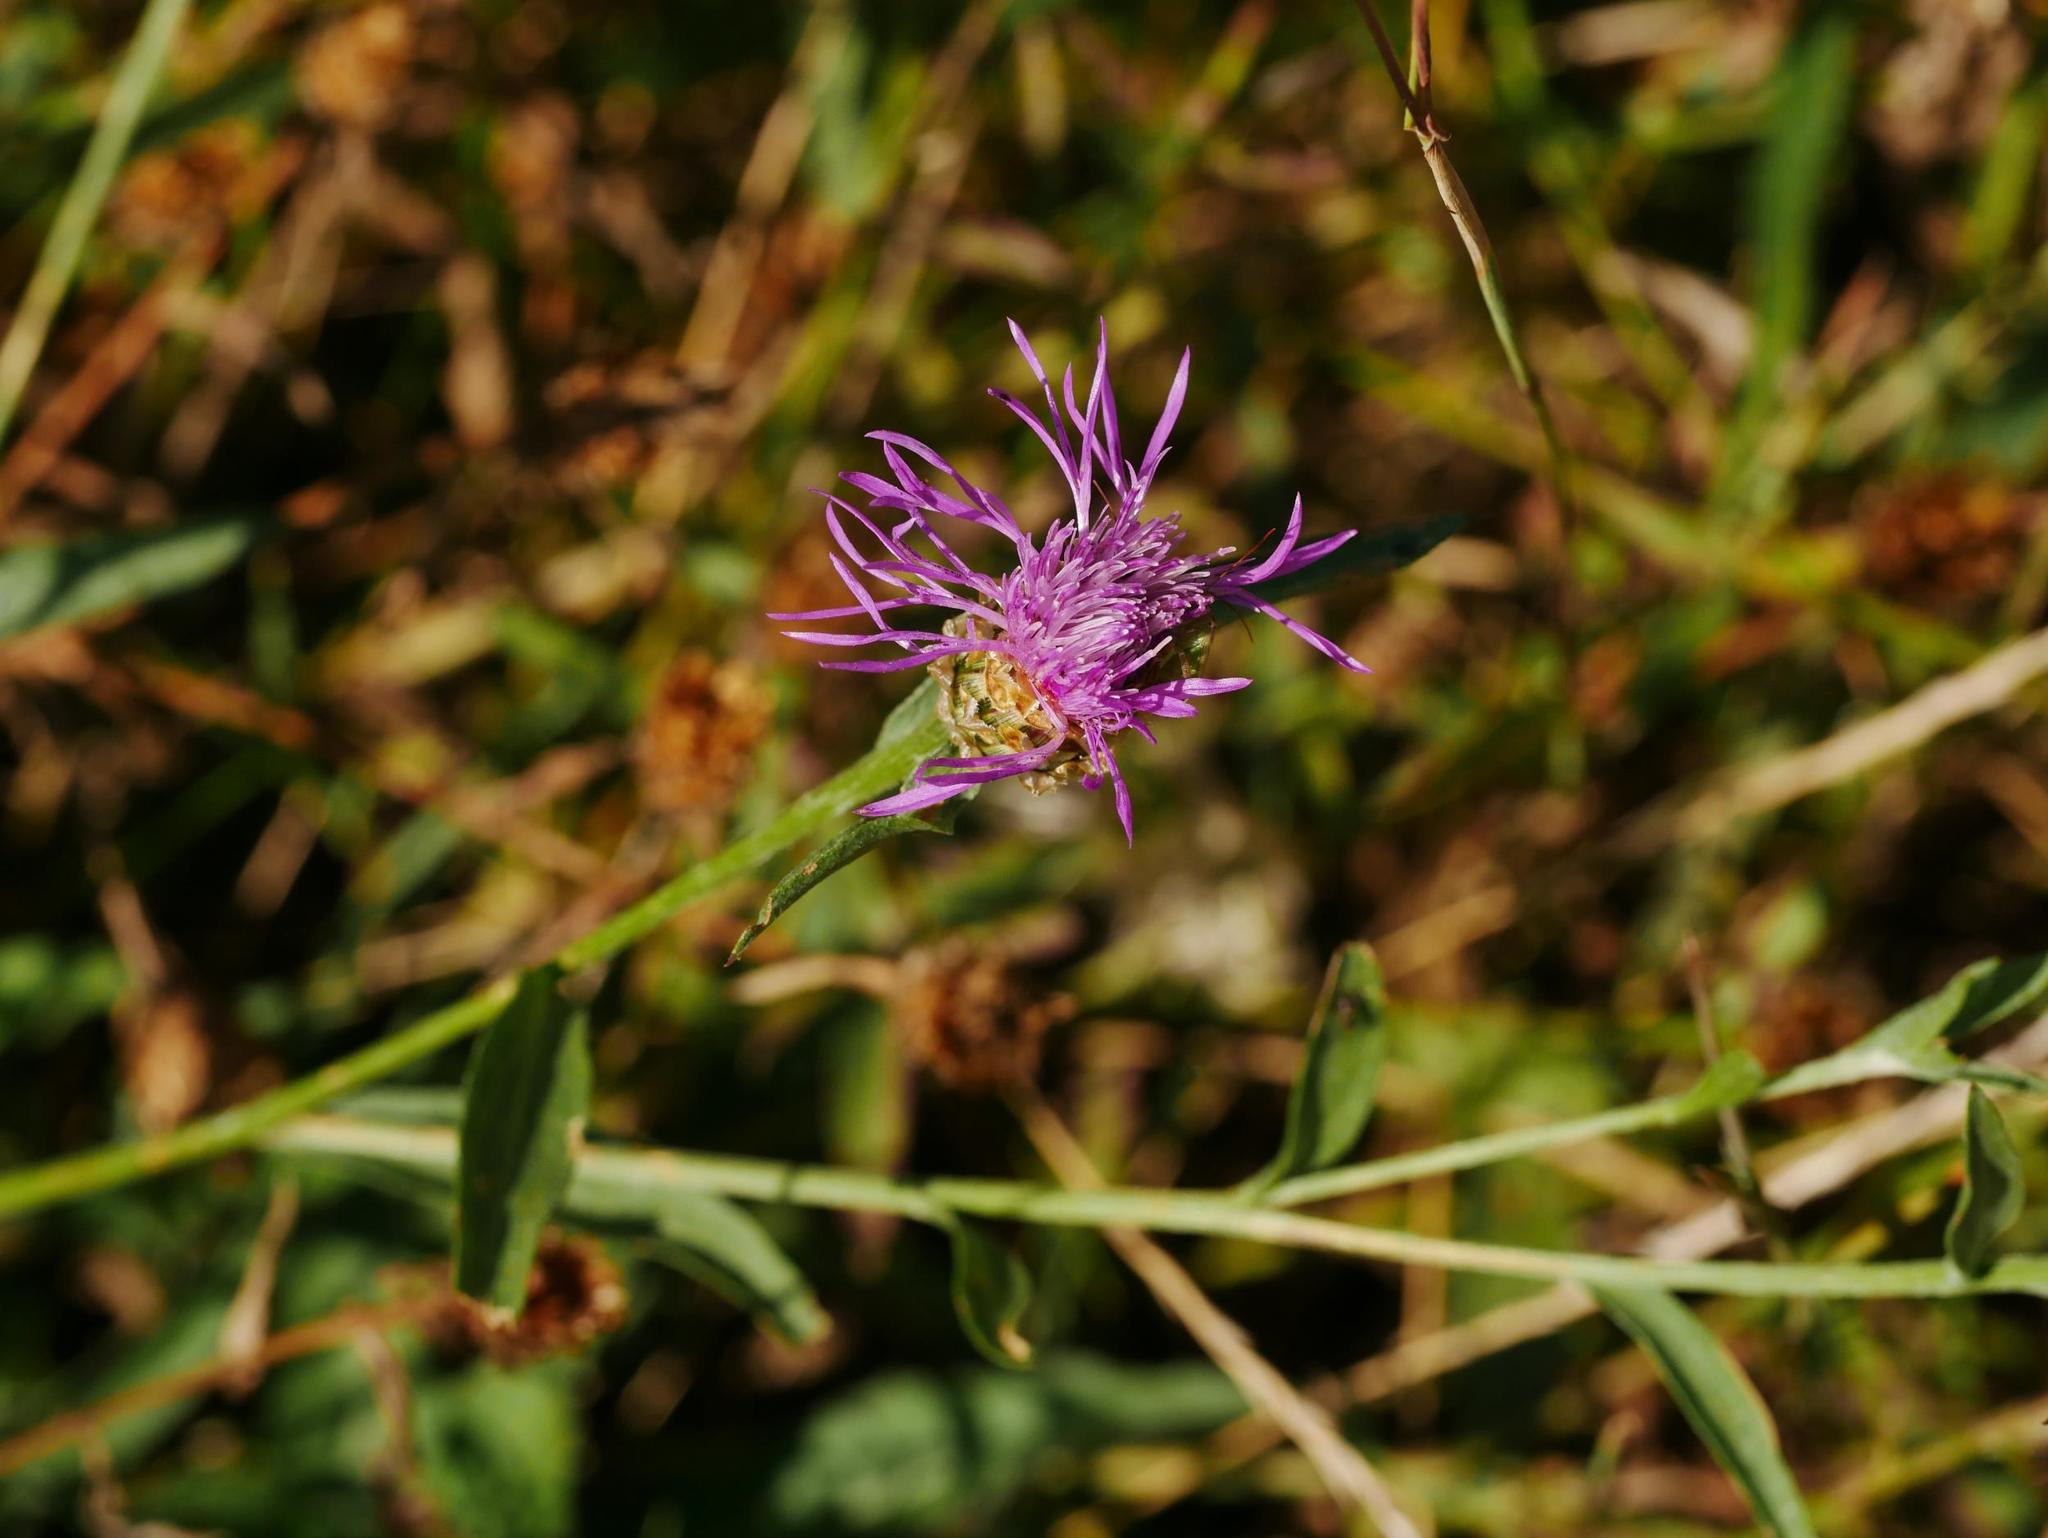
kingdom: Plantae
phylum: Tracheophyta
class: Magnoliopsida
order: Asterales
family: Asteraceae
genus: Centaurea
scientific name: Centaurea jacea
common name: Brown knapweed
